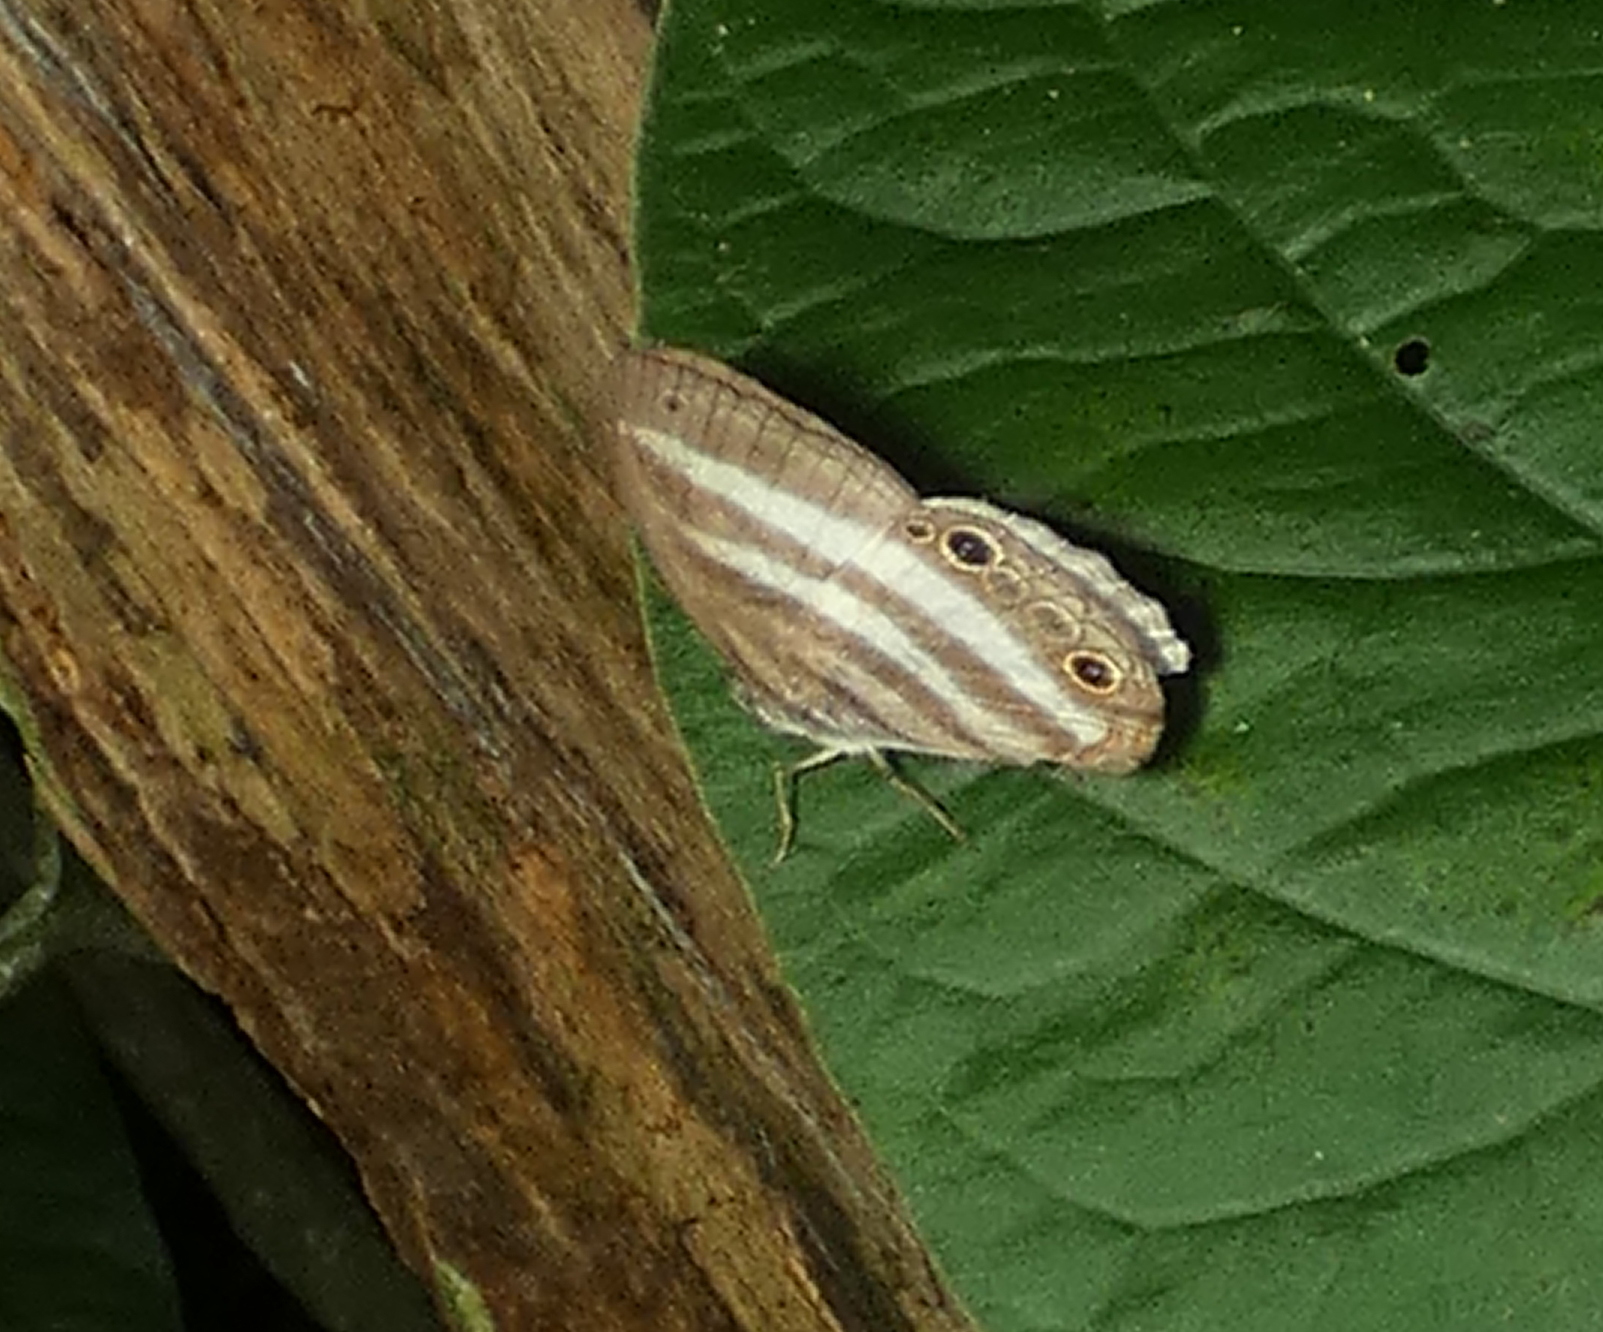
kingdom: Animalia
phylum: Arthropoda
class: Insecta
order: Lepidoptera
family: Nymphalidae
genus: Pareuptychia
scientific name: Pareuptychia hesione
